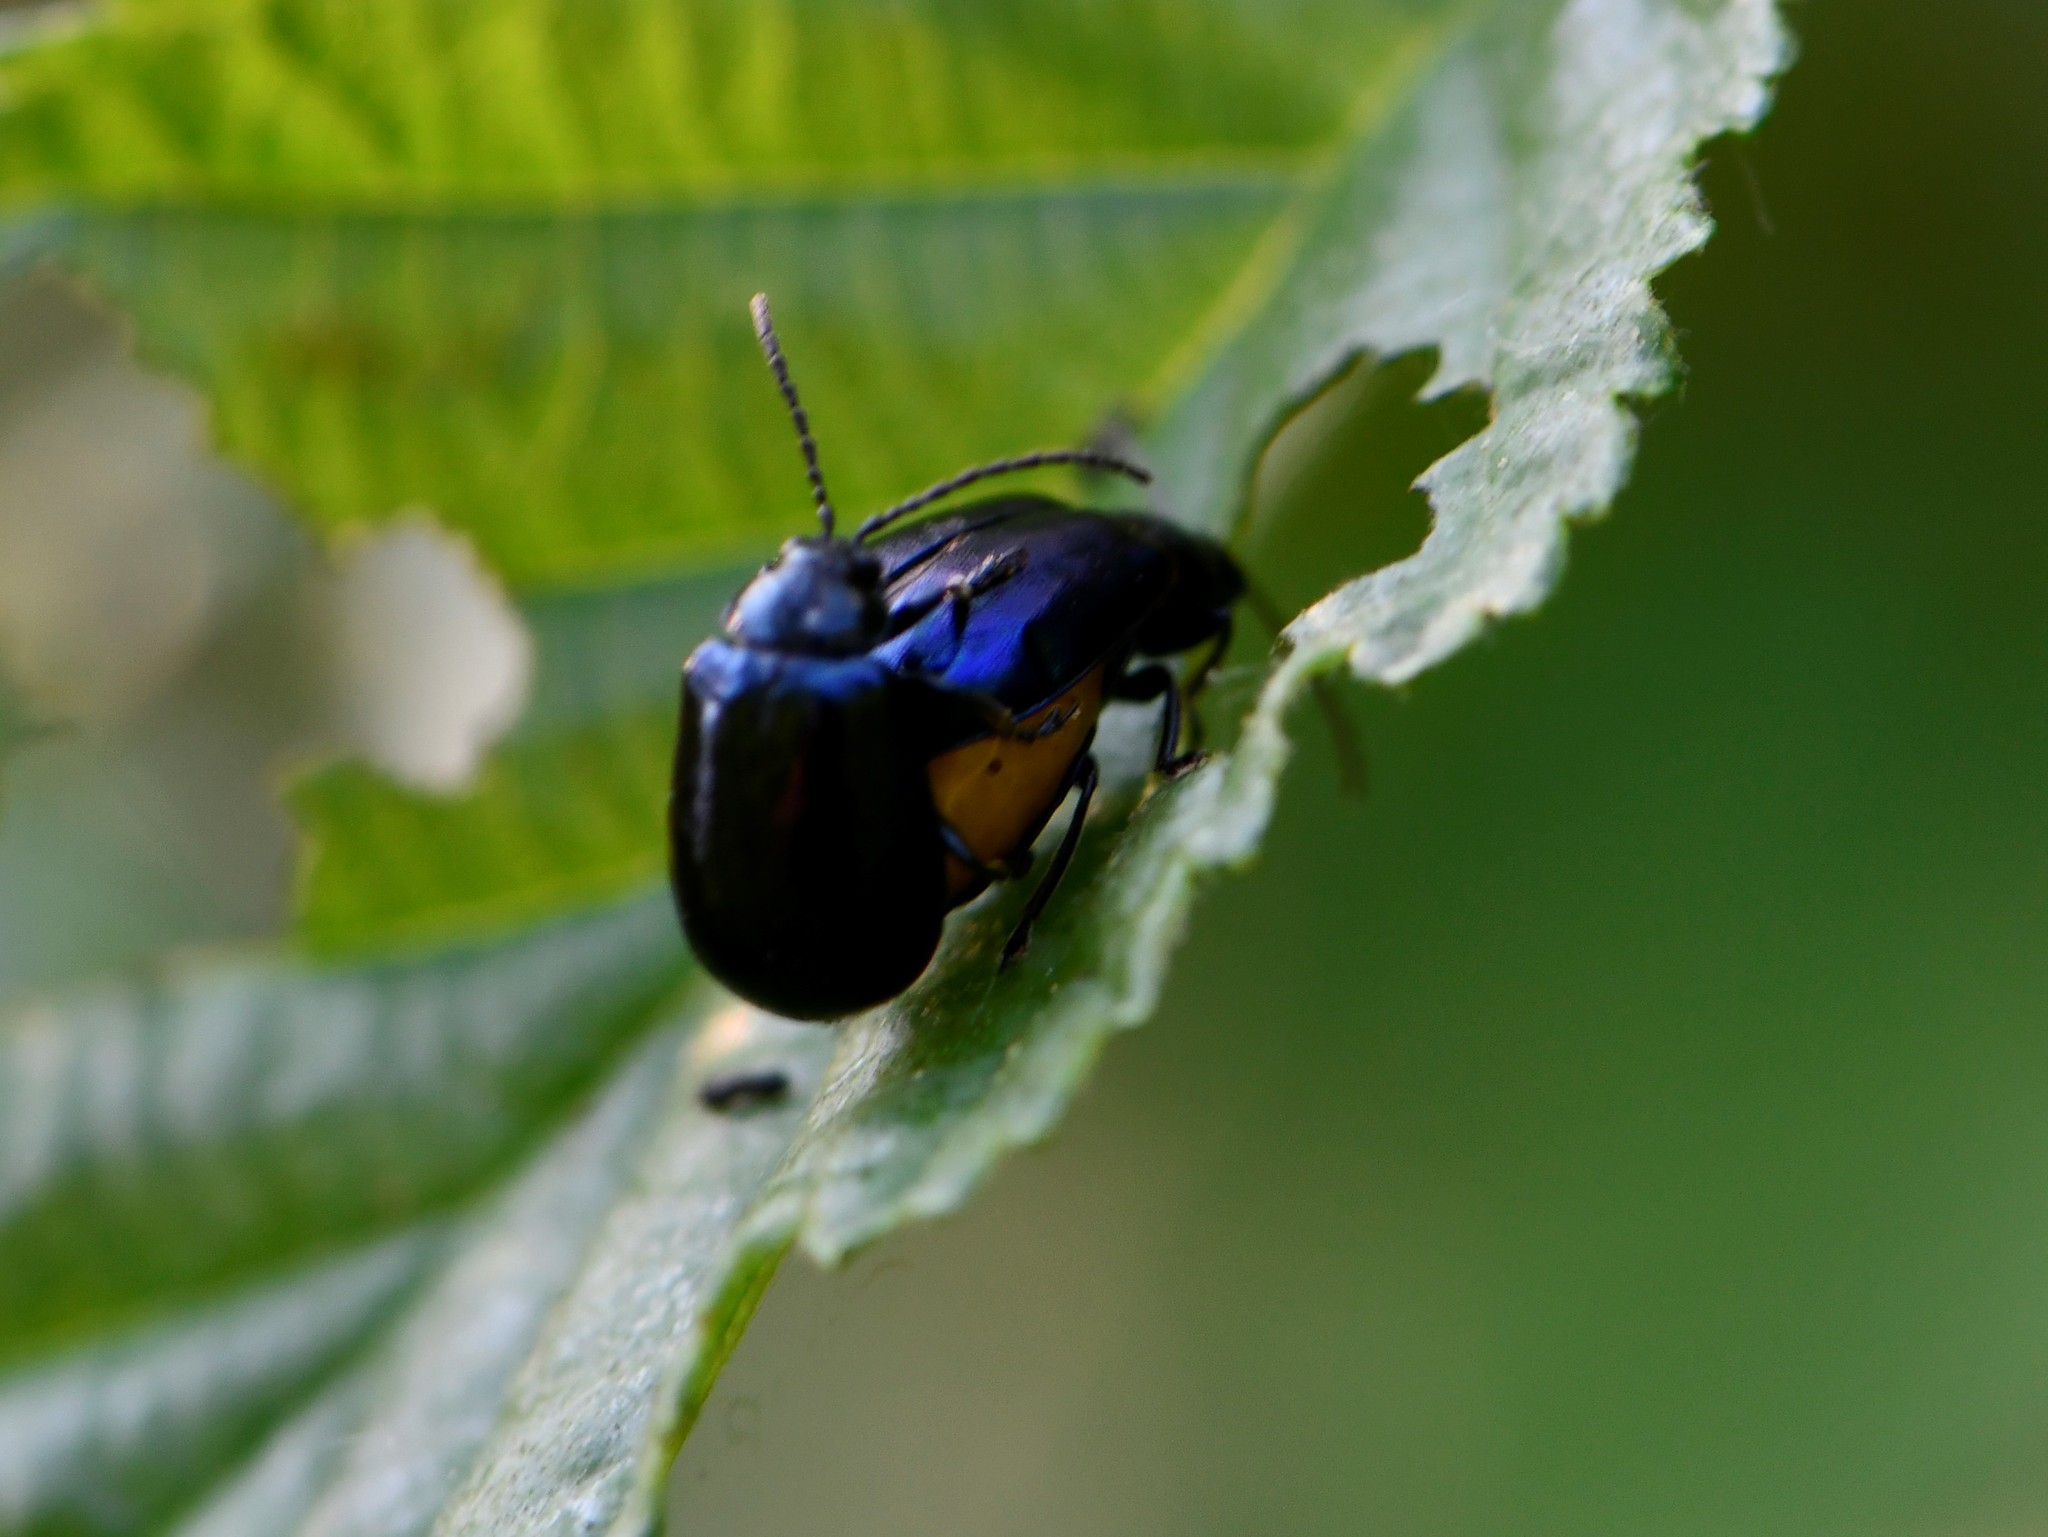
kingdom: Animalia
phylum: Arthropoda
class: Insecta
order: Coleoptera
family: Chrysomelidae
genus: Agelastica
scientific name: Agelastica alni
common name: Alder leaf beetle
